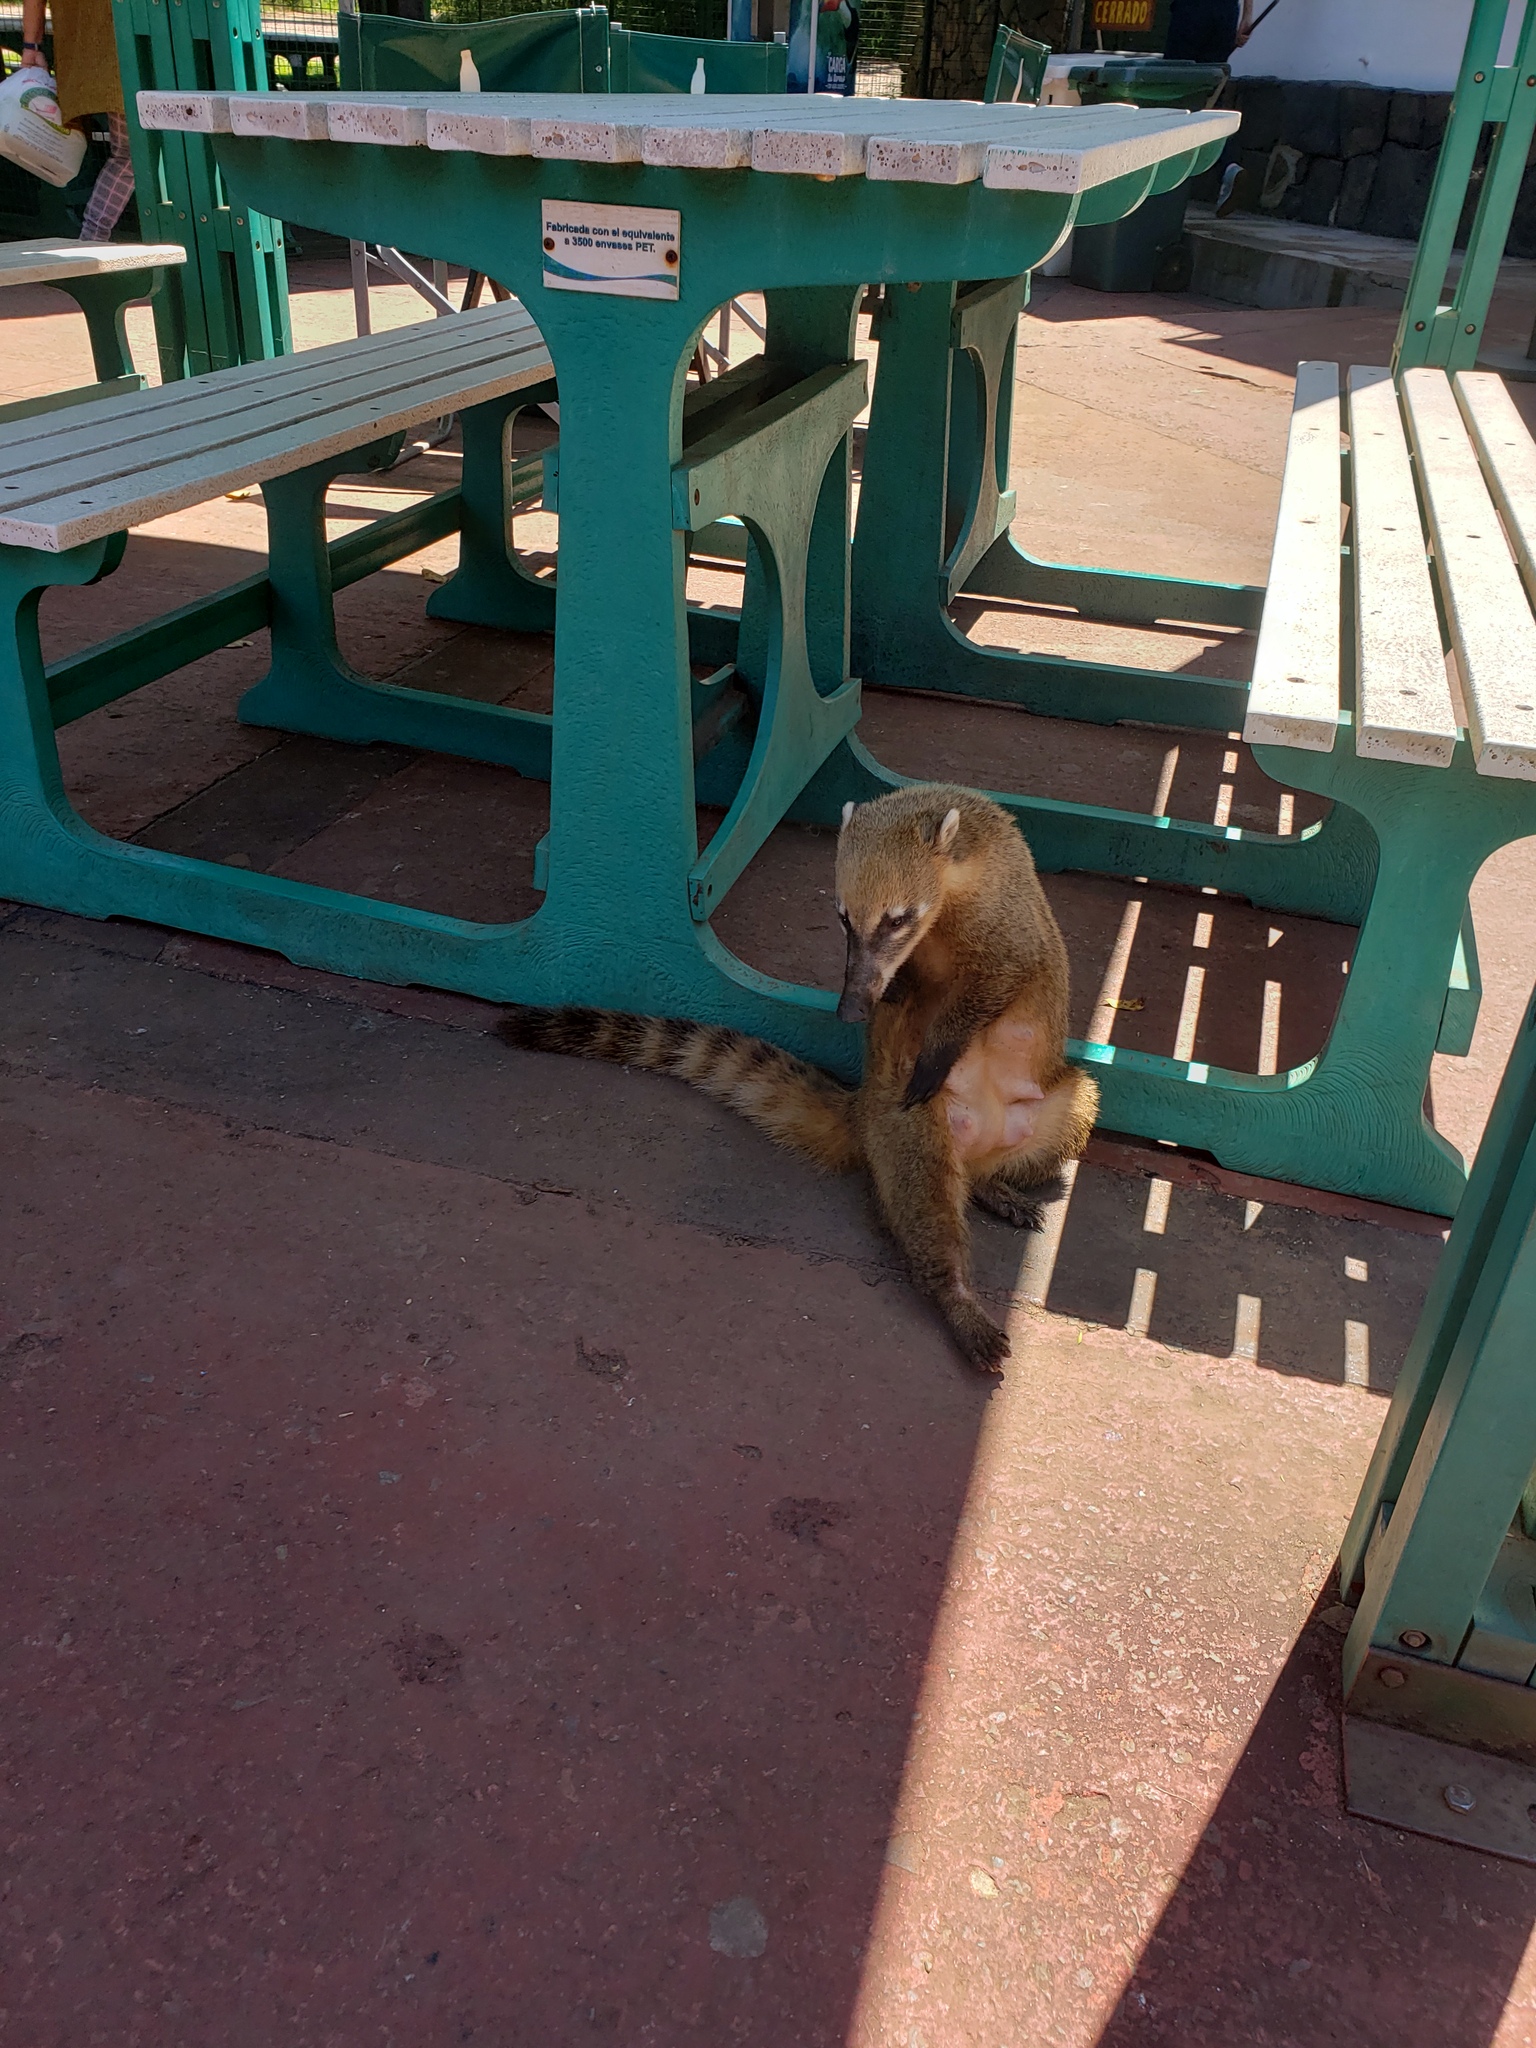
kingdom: Animalia
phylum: Chordata
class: Mammalia
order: Carnivora
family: Procyonidae
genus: Nasua
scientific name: Nasua nasua
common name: South american coati
